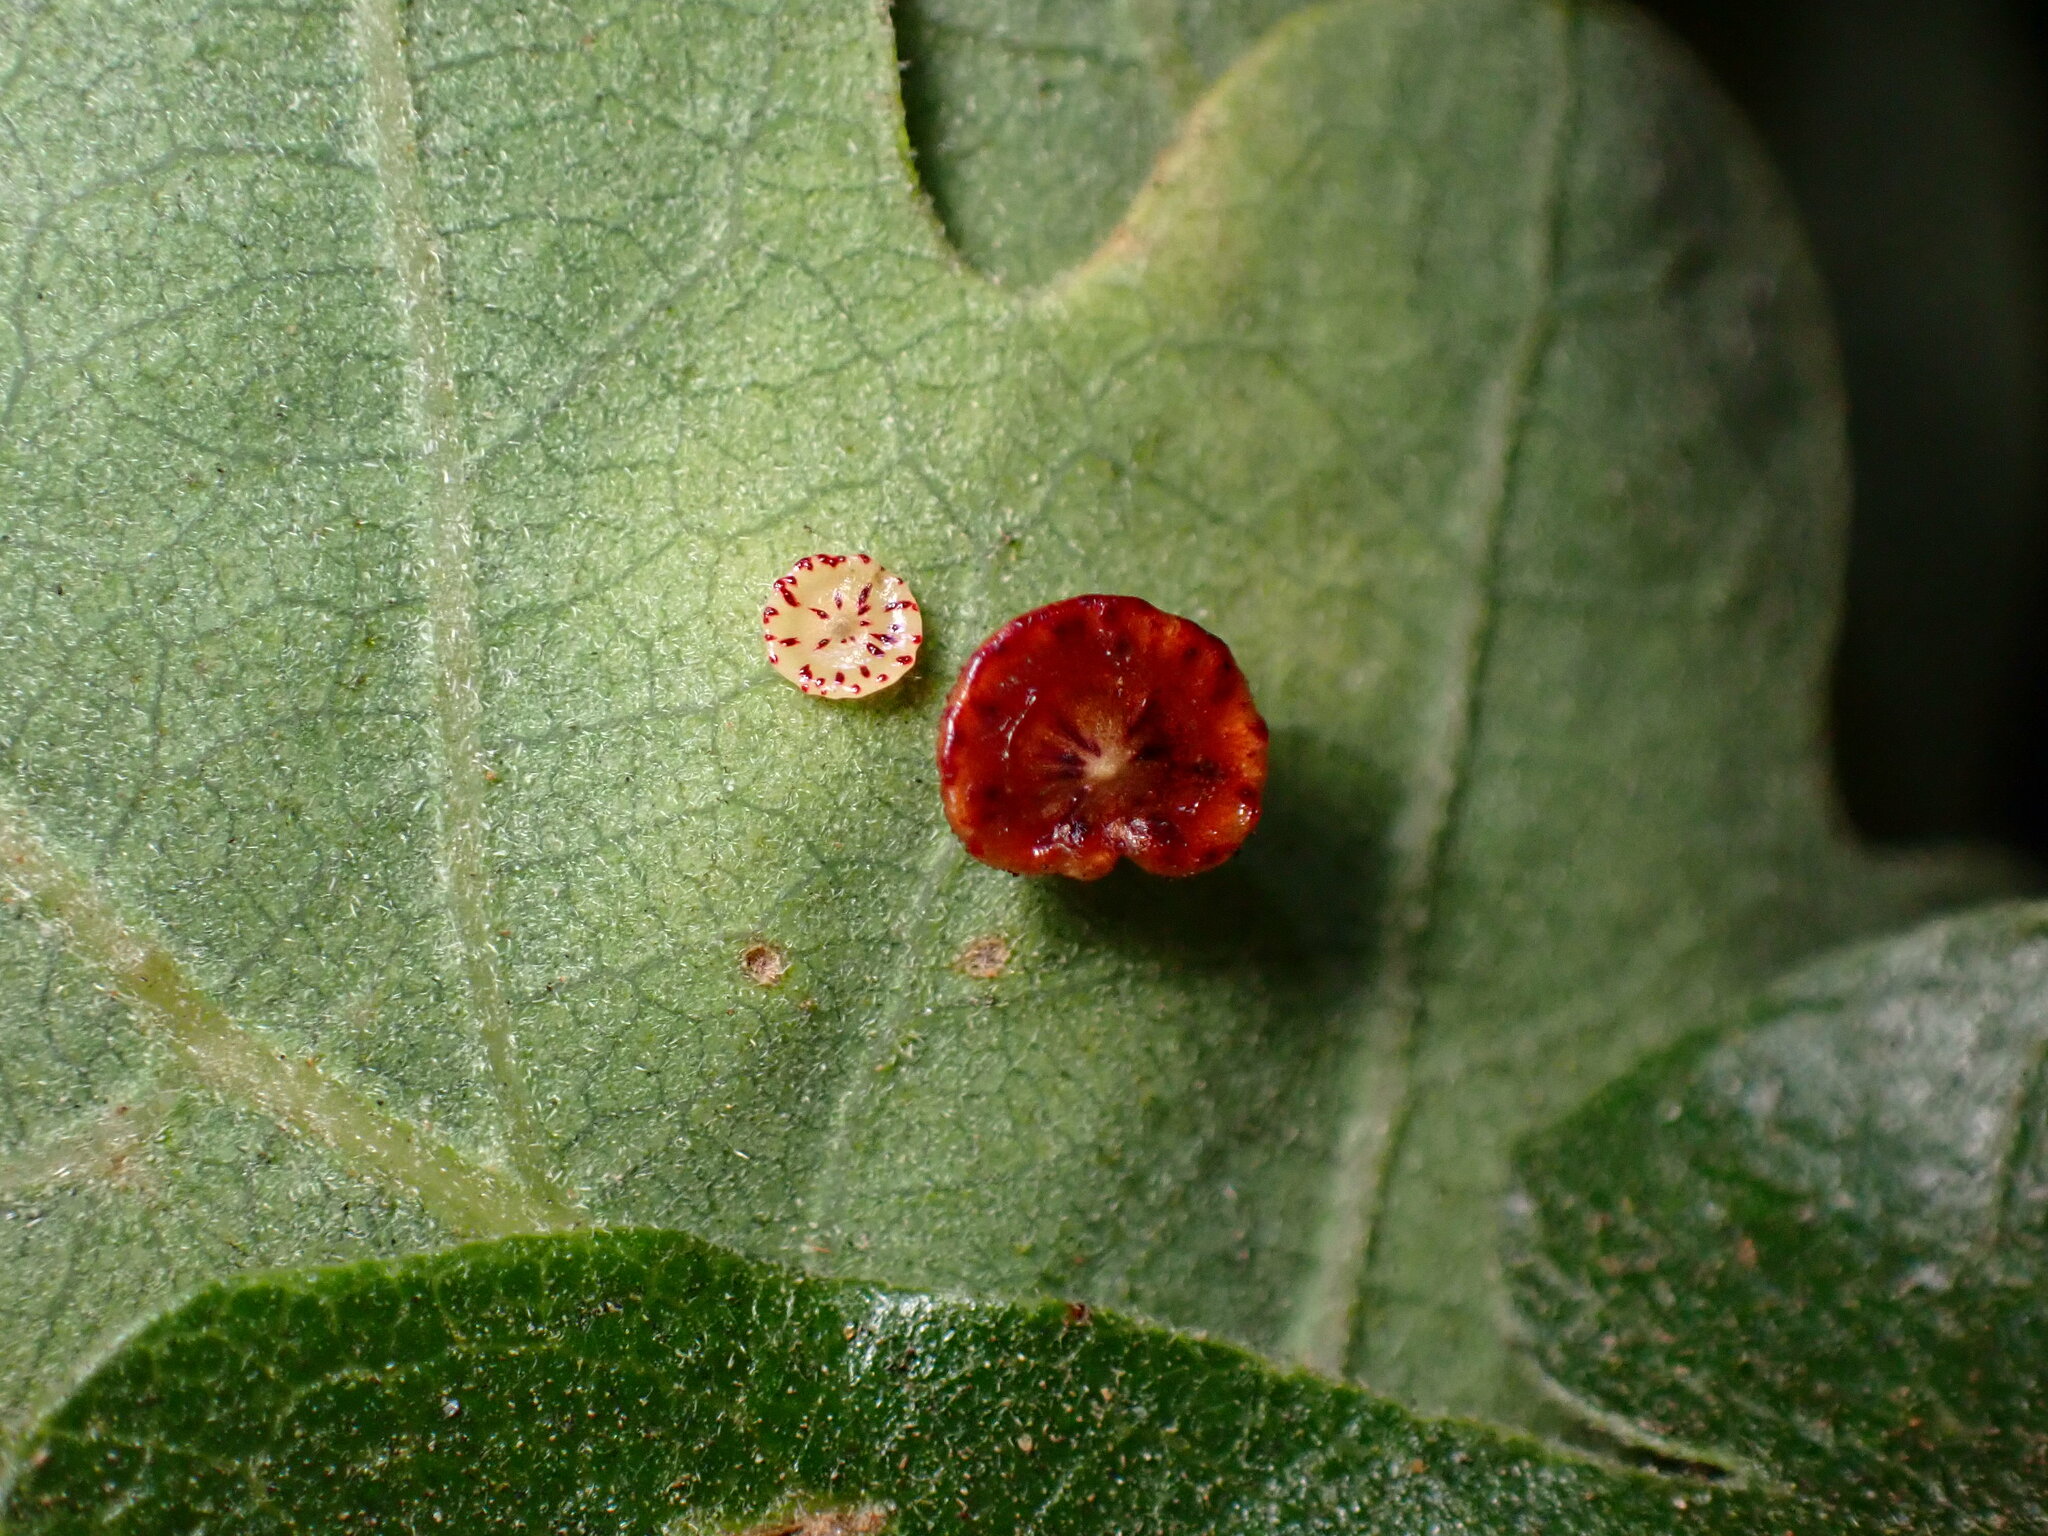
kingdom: Animalia
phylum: Arthropoda
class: Insecta
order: Hymenoptera
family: Cynipidae
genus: Andricus
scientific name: Andricus
